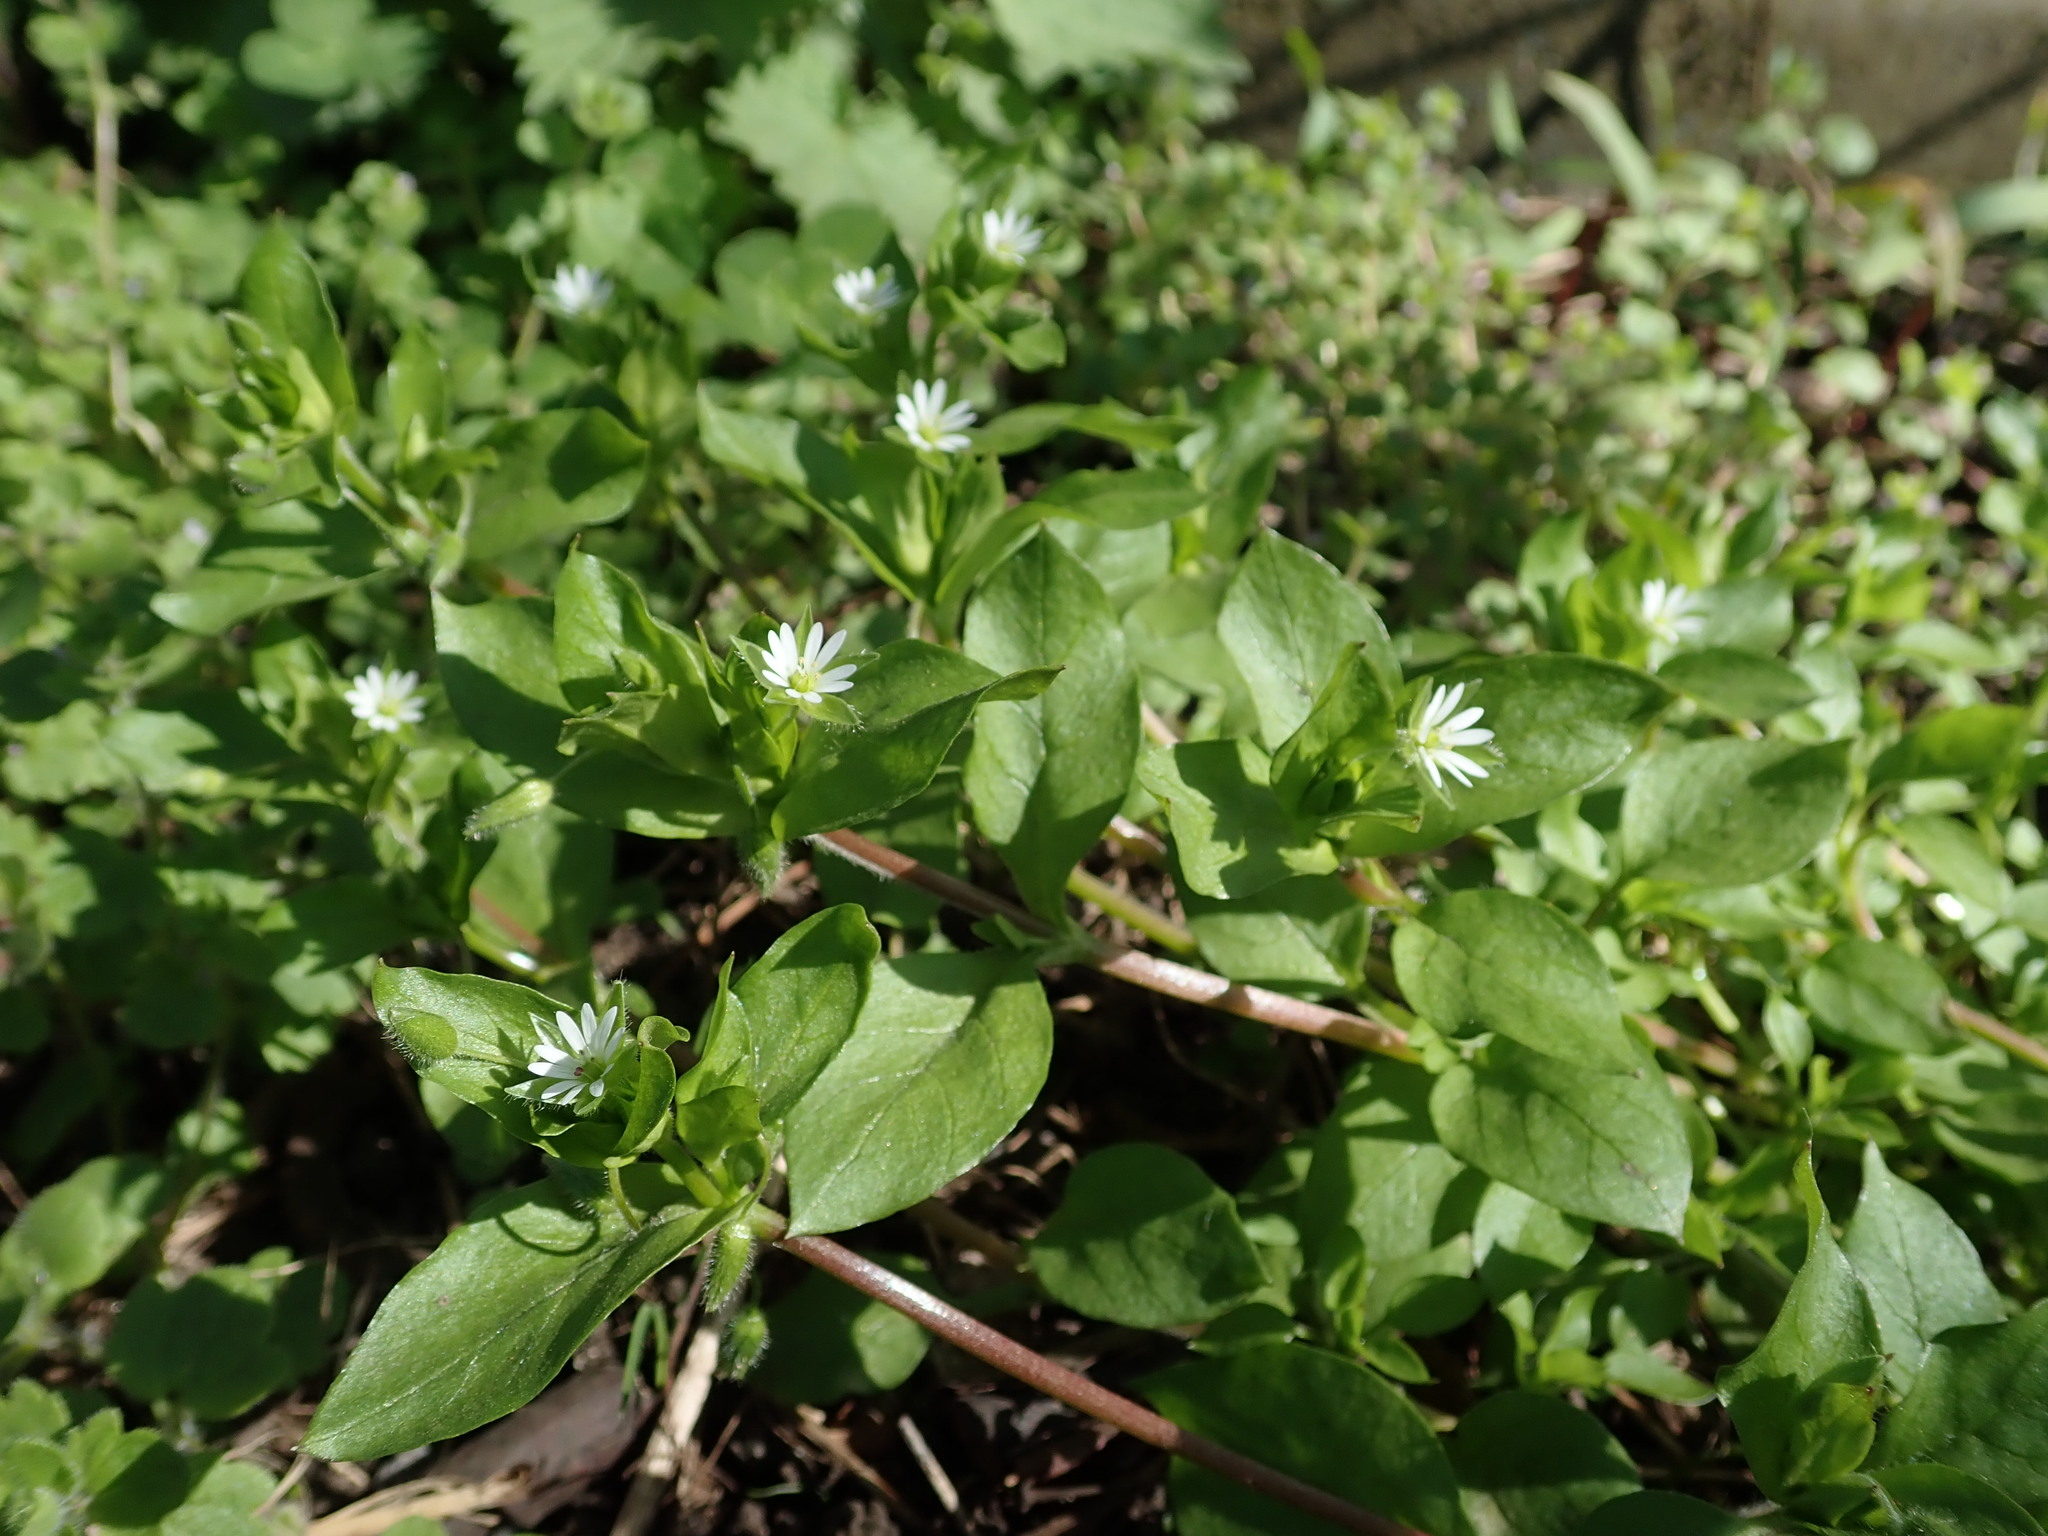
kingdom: Plantae
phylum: Tracheophyta
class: Magnoliopsida
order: Caryophyllales
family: Caryophyllaceae
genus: Stellaria
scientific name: Stellaria media
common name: Common chickweed
